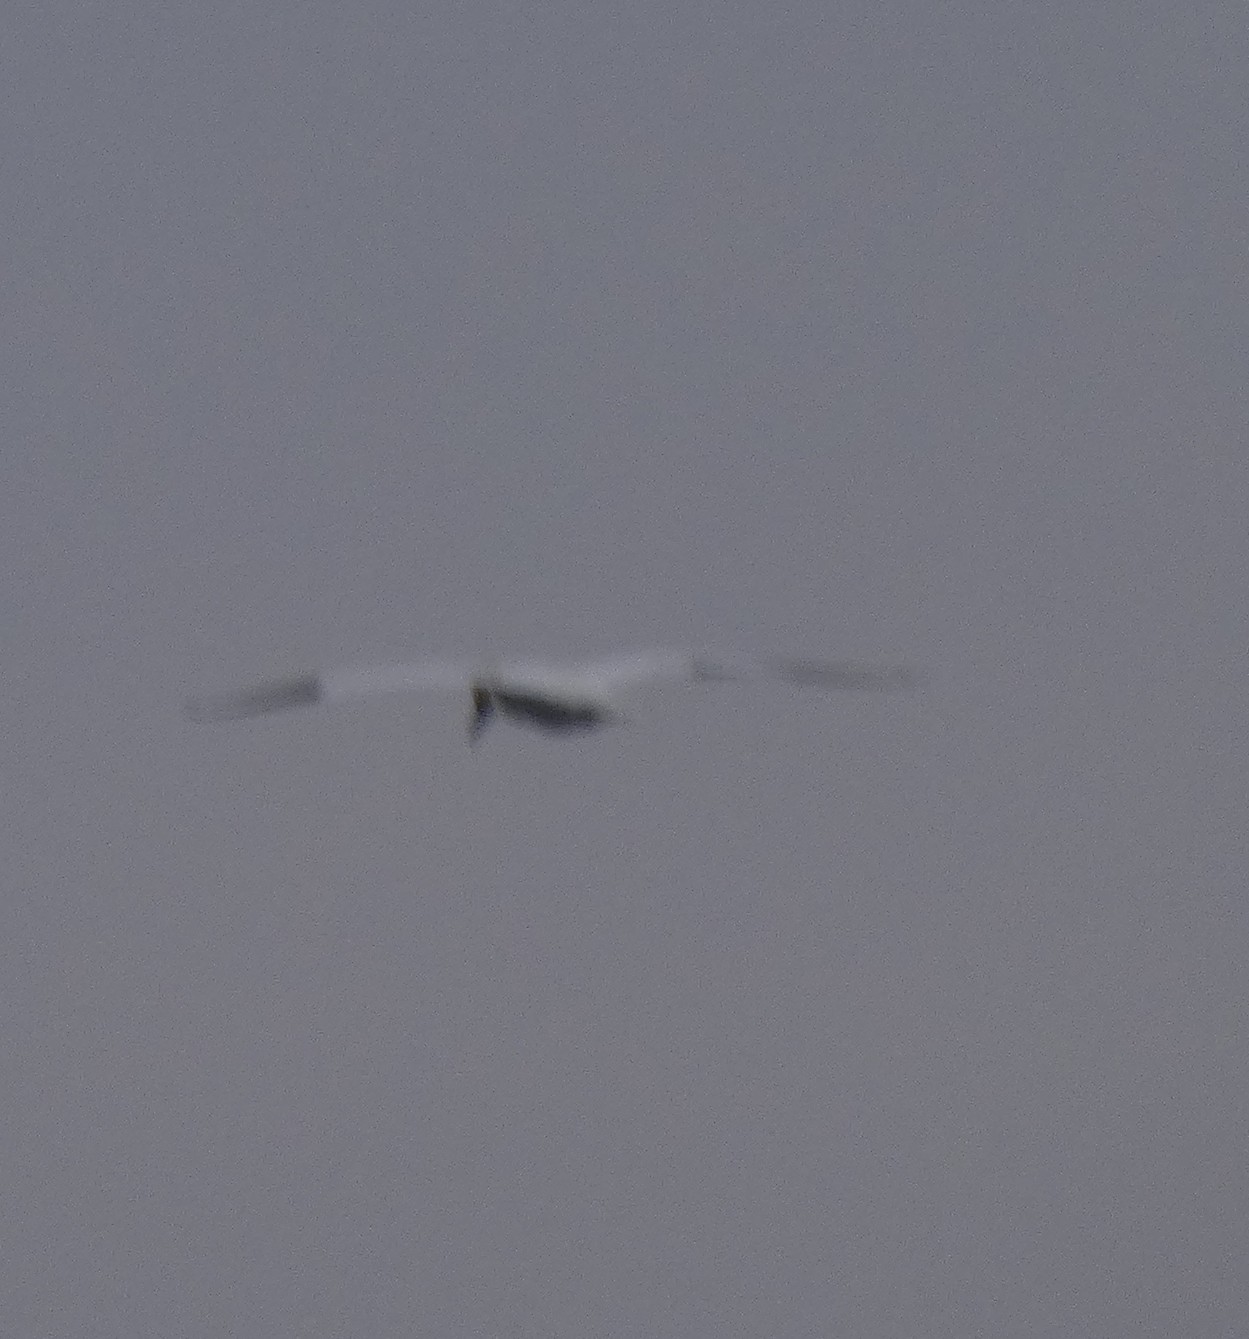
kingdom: Animalia
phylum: Chordata
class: Aves
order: Suliformes
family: Sulidae
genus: Morus
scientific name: Morus bassanus
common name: Northern gannet
